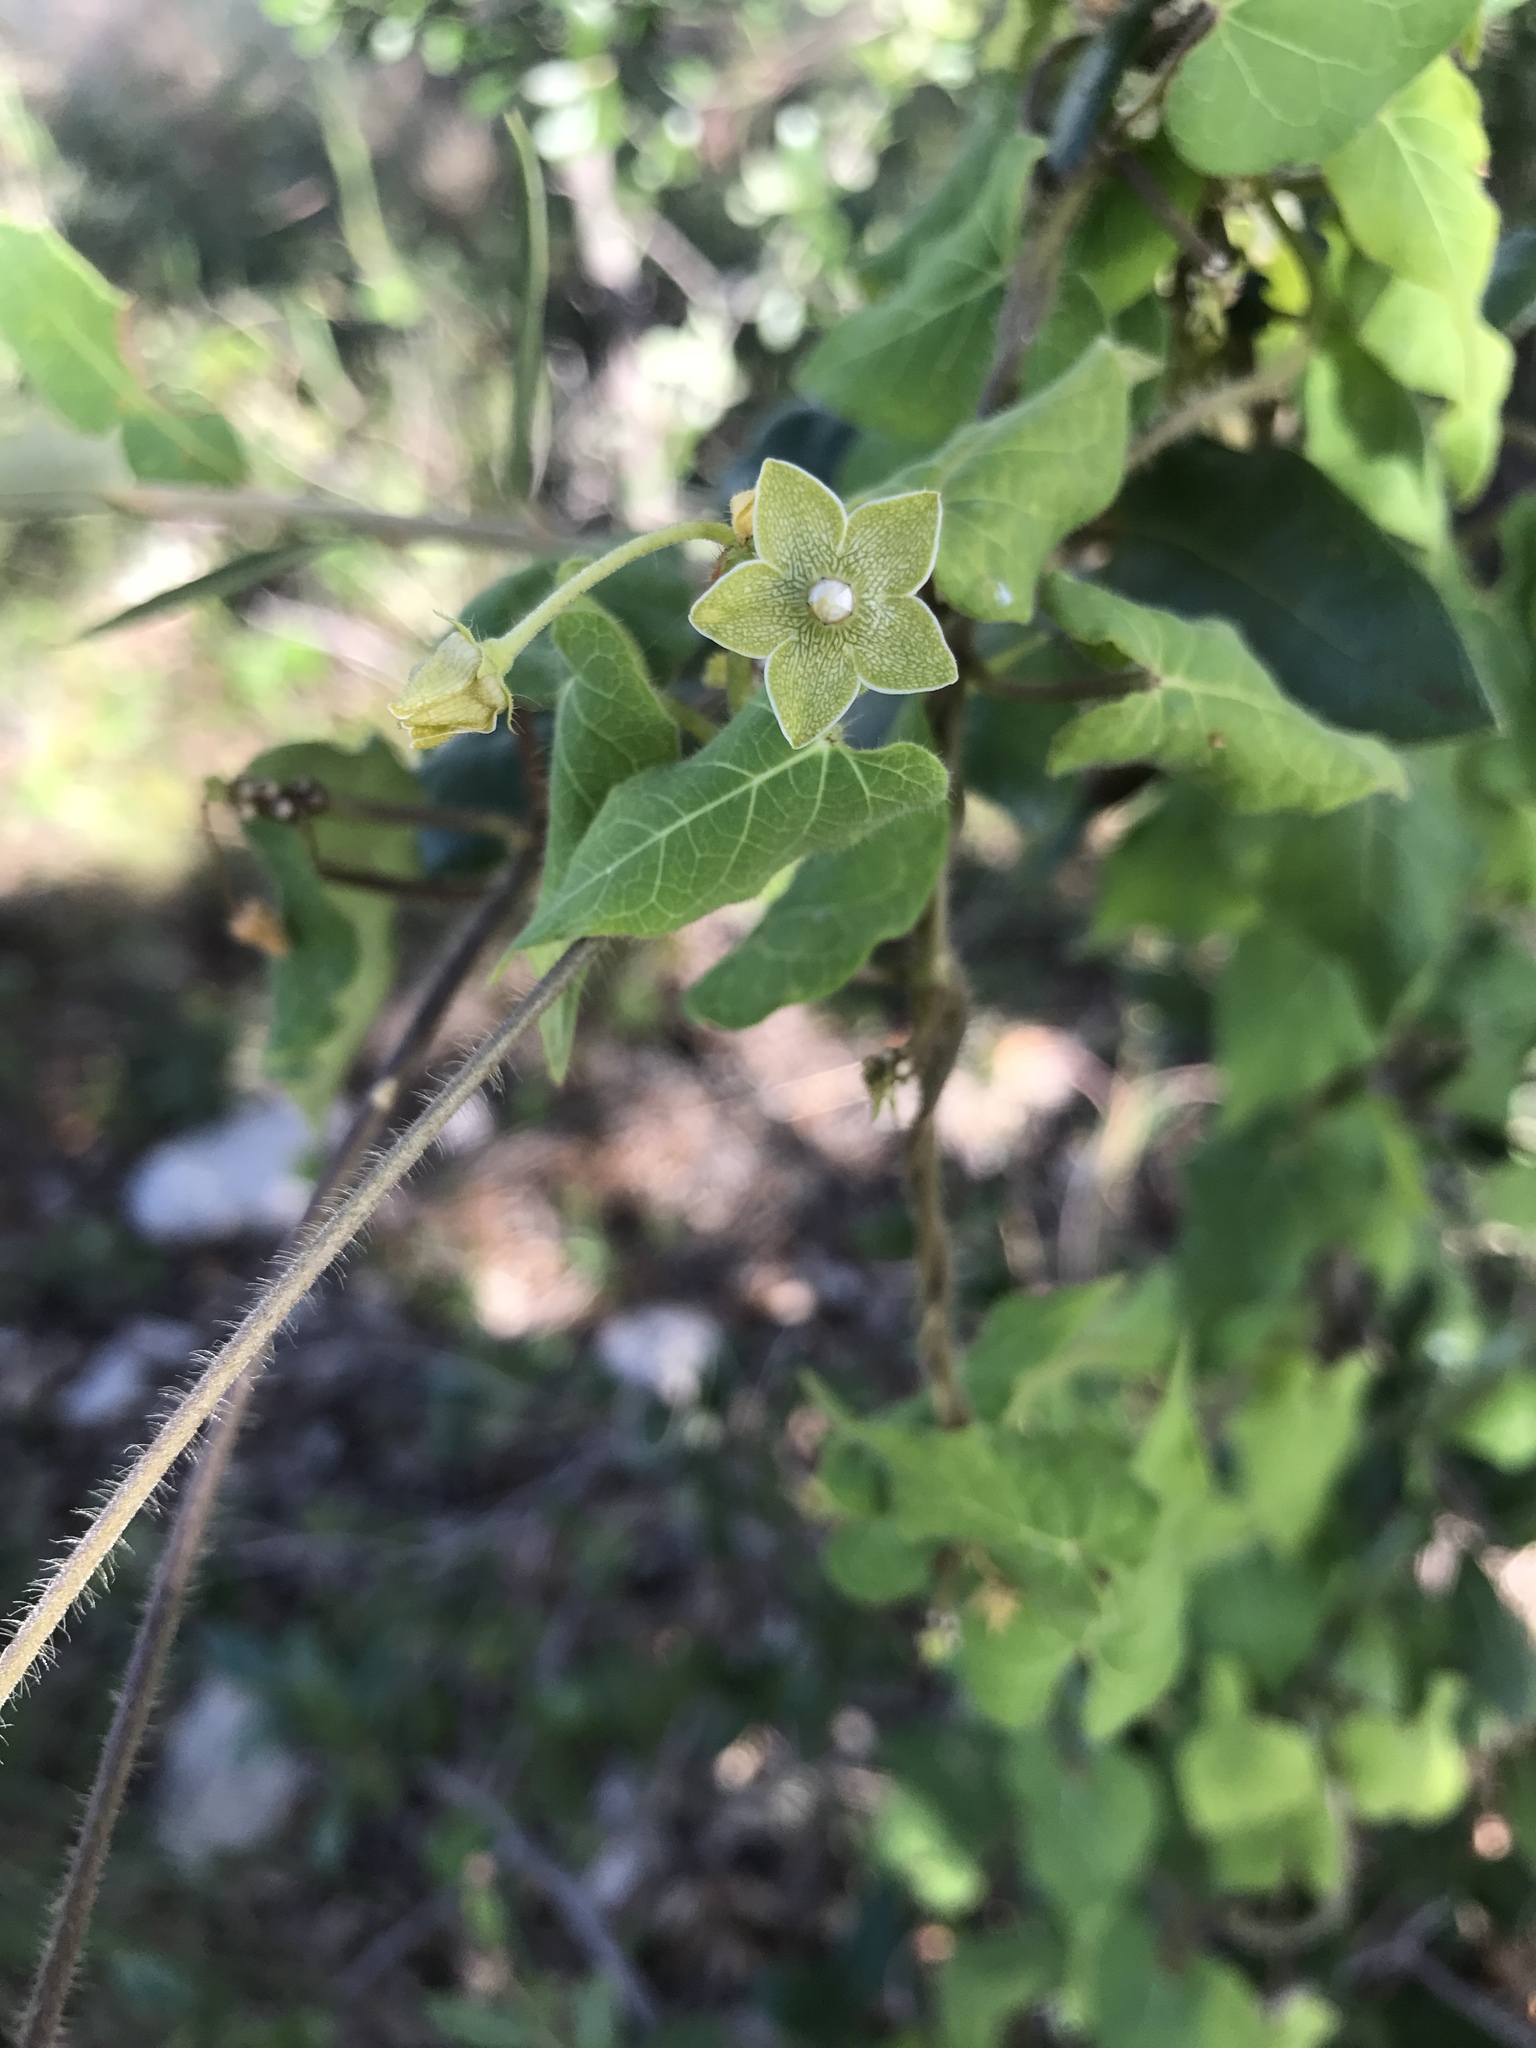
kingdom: Plantae
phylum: Tracheophyta
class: Magnoliopsida
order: Gentianales
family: Apocynaceae
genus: Dictyanthus
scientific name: Dictyanthus reticulatus
